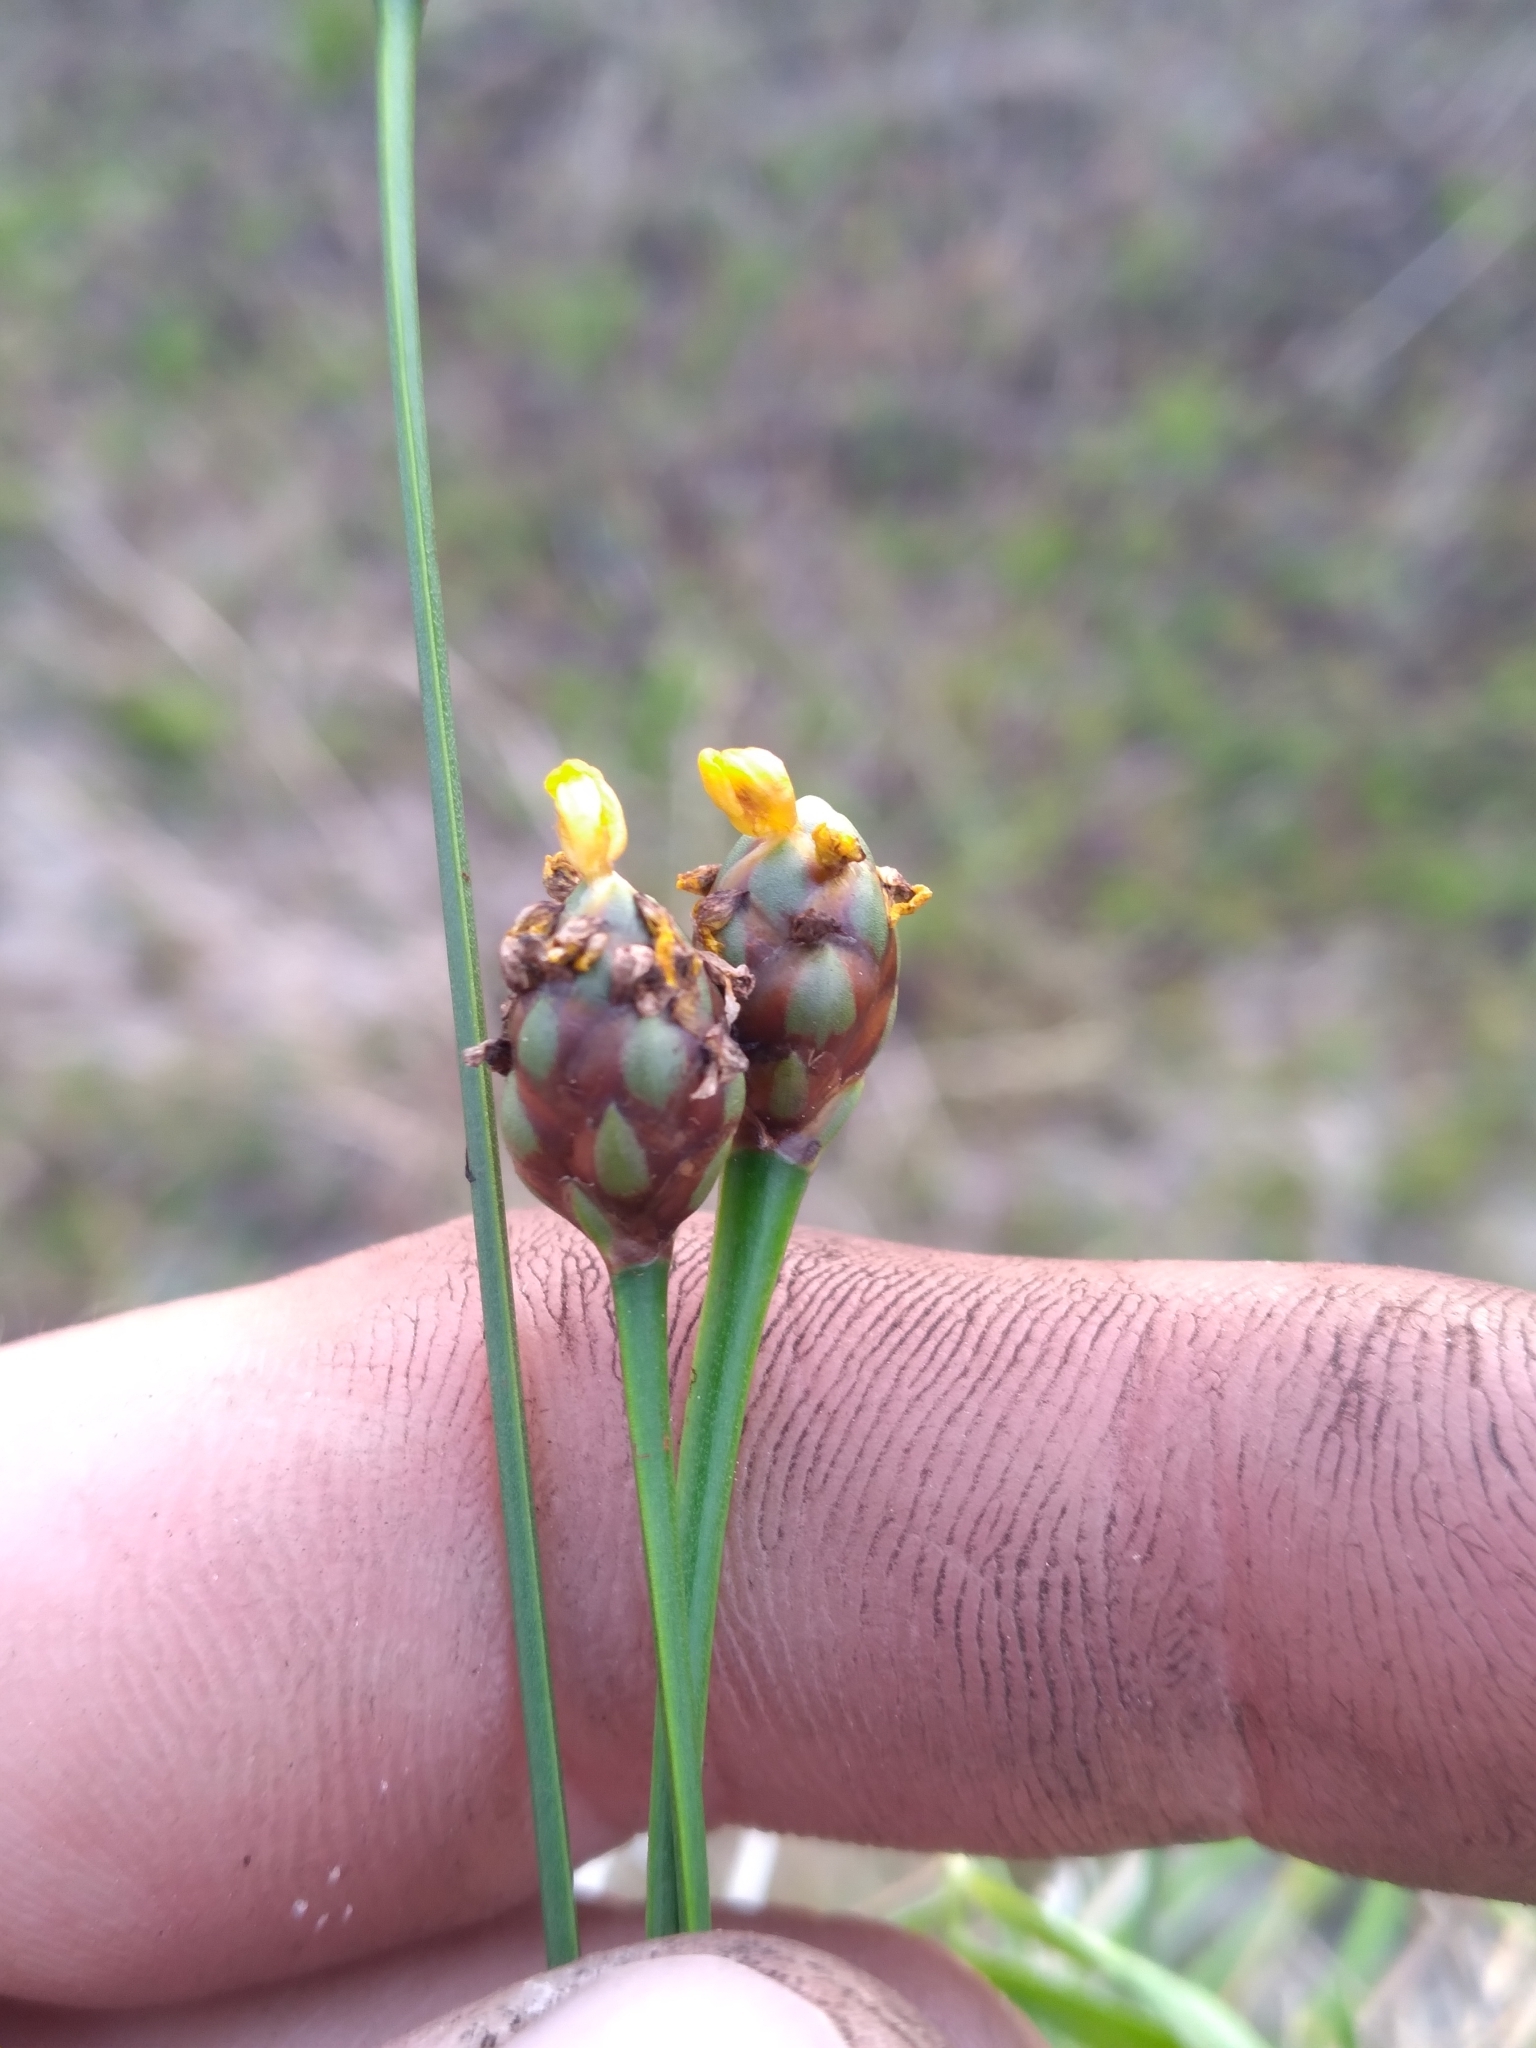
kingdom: Plantae
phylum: Tracheophyta
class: Liliopsida
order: Poales
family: Xyridaceae
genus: Xyris
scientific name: Xyris jupicai
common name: Richard's yelloweyed grass
